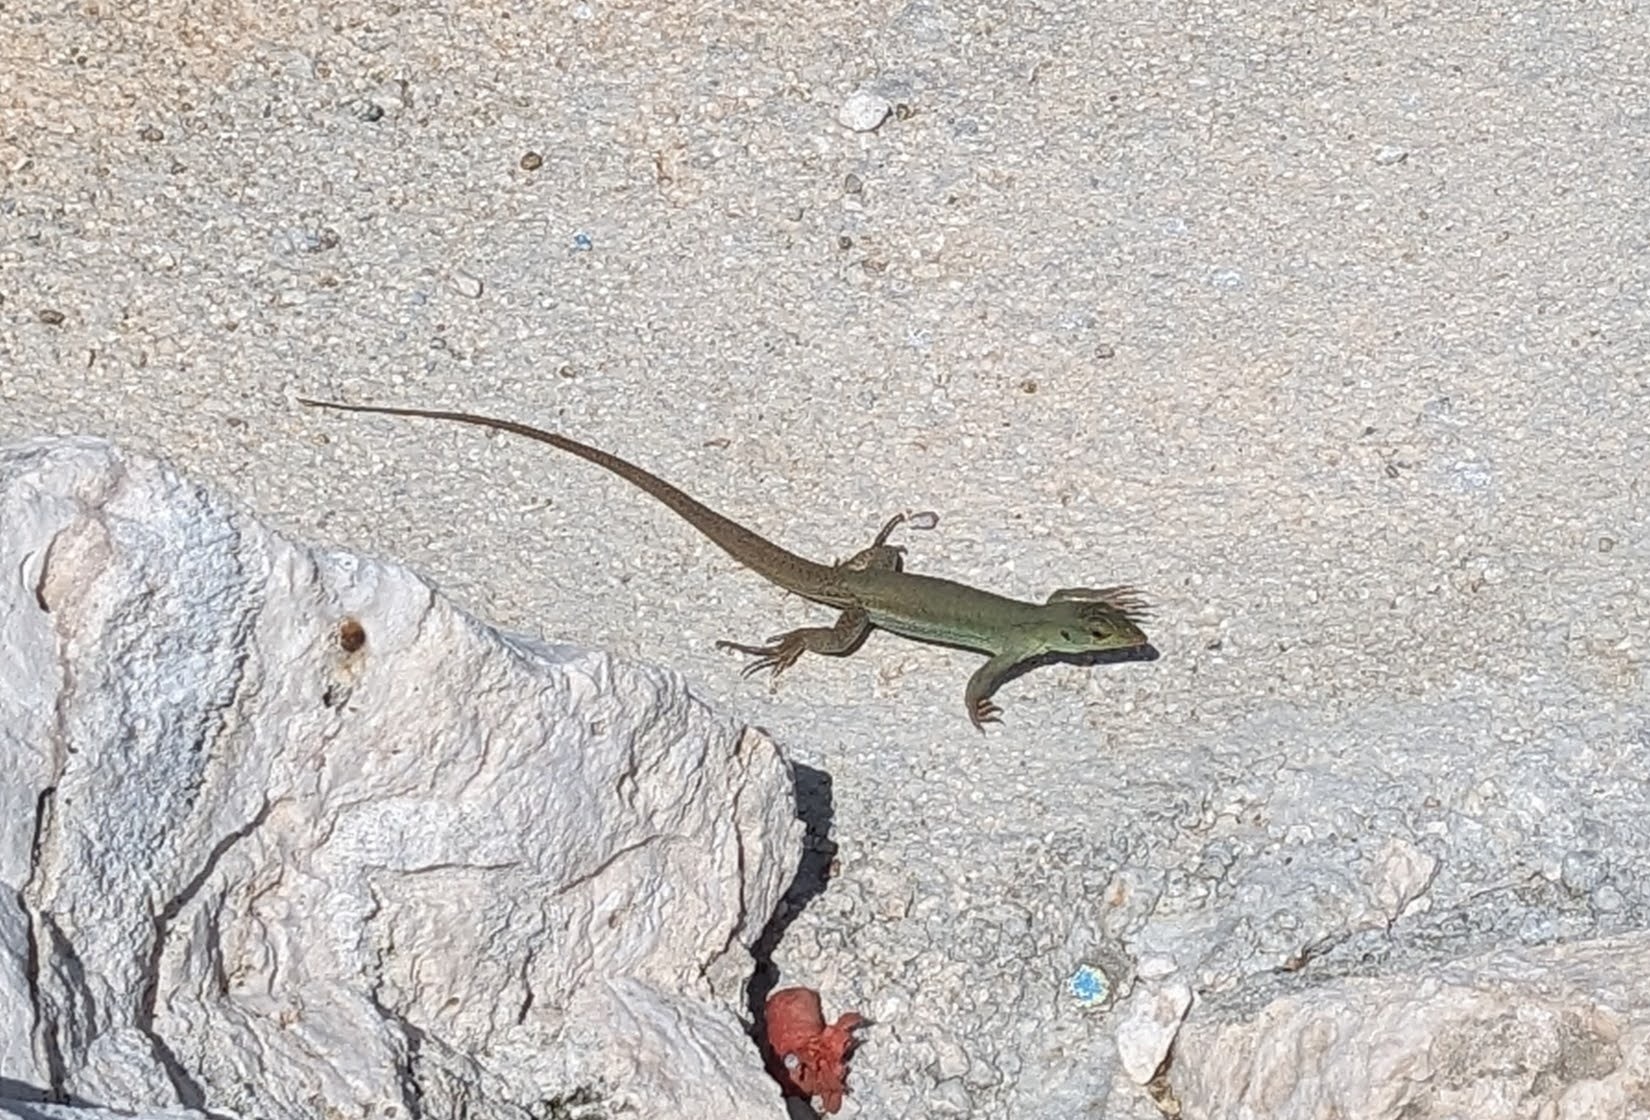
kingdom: Animalia
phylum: Chordata
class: Squamata
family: Teiidae
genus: Ameiva
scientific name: Ameiva bifrontata
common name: Cope's ameiva
